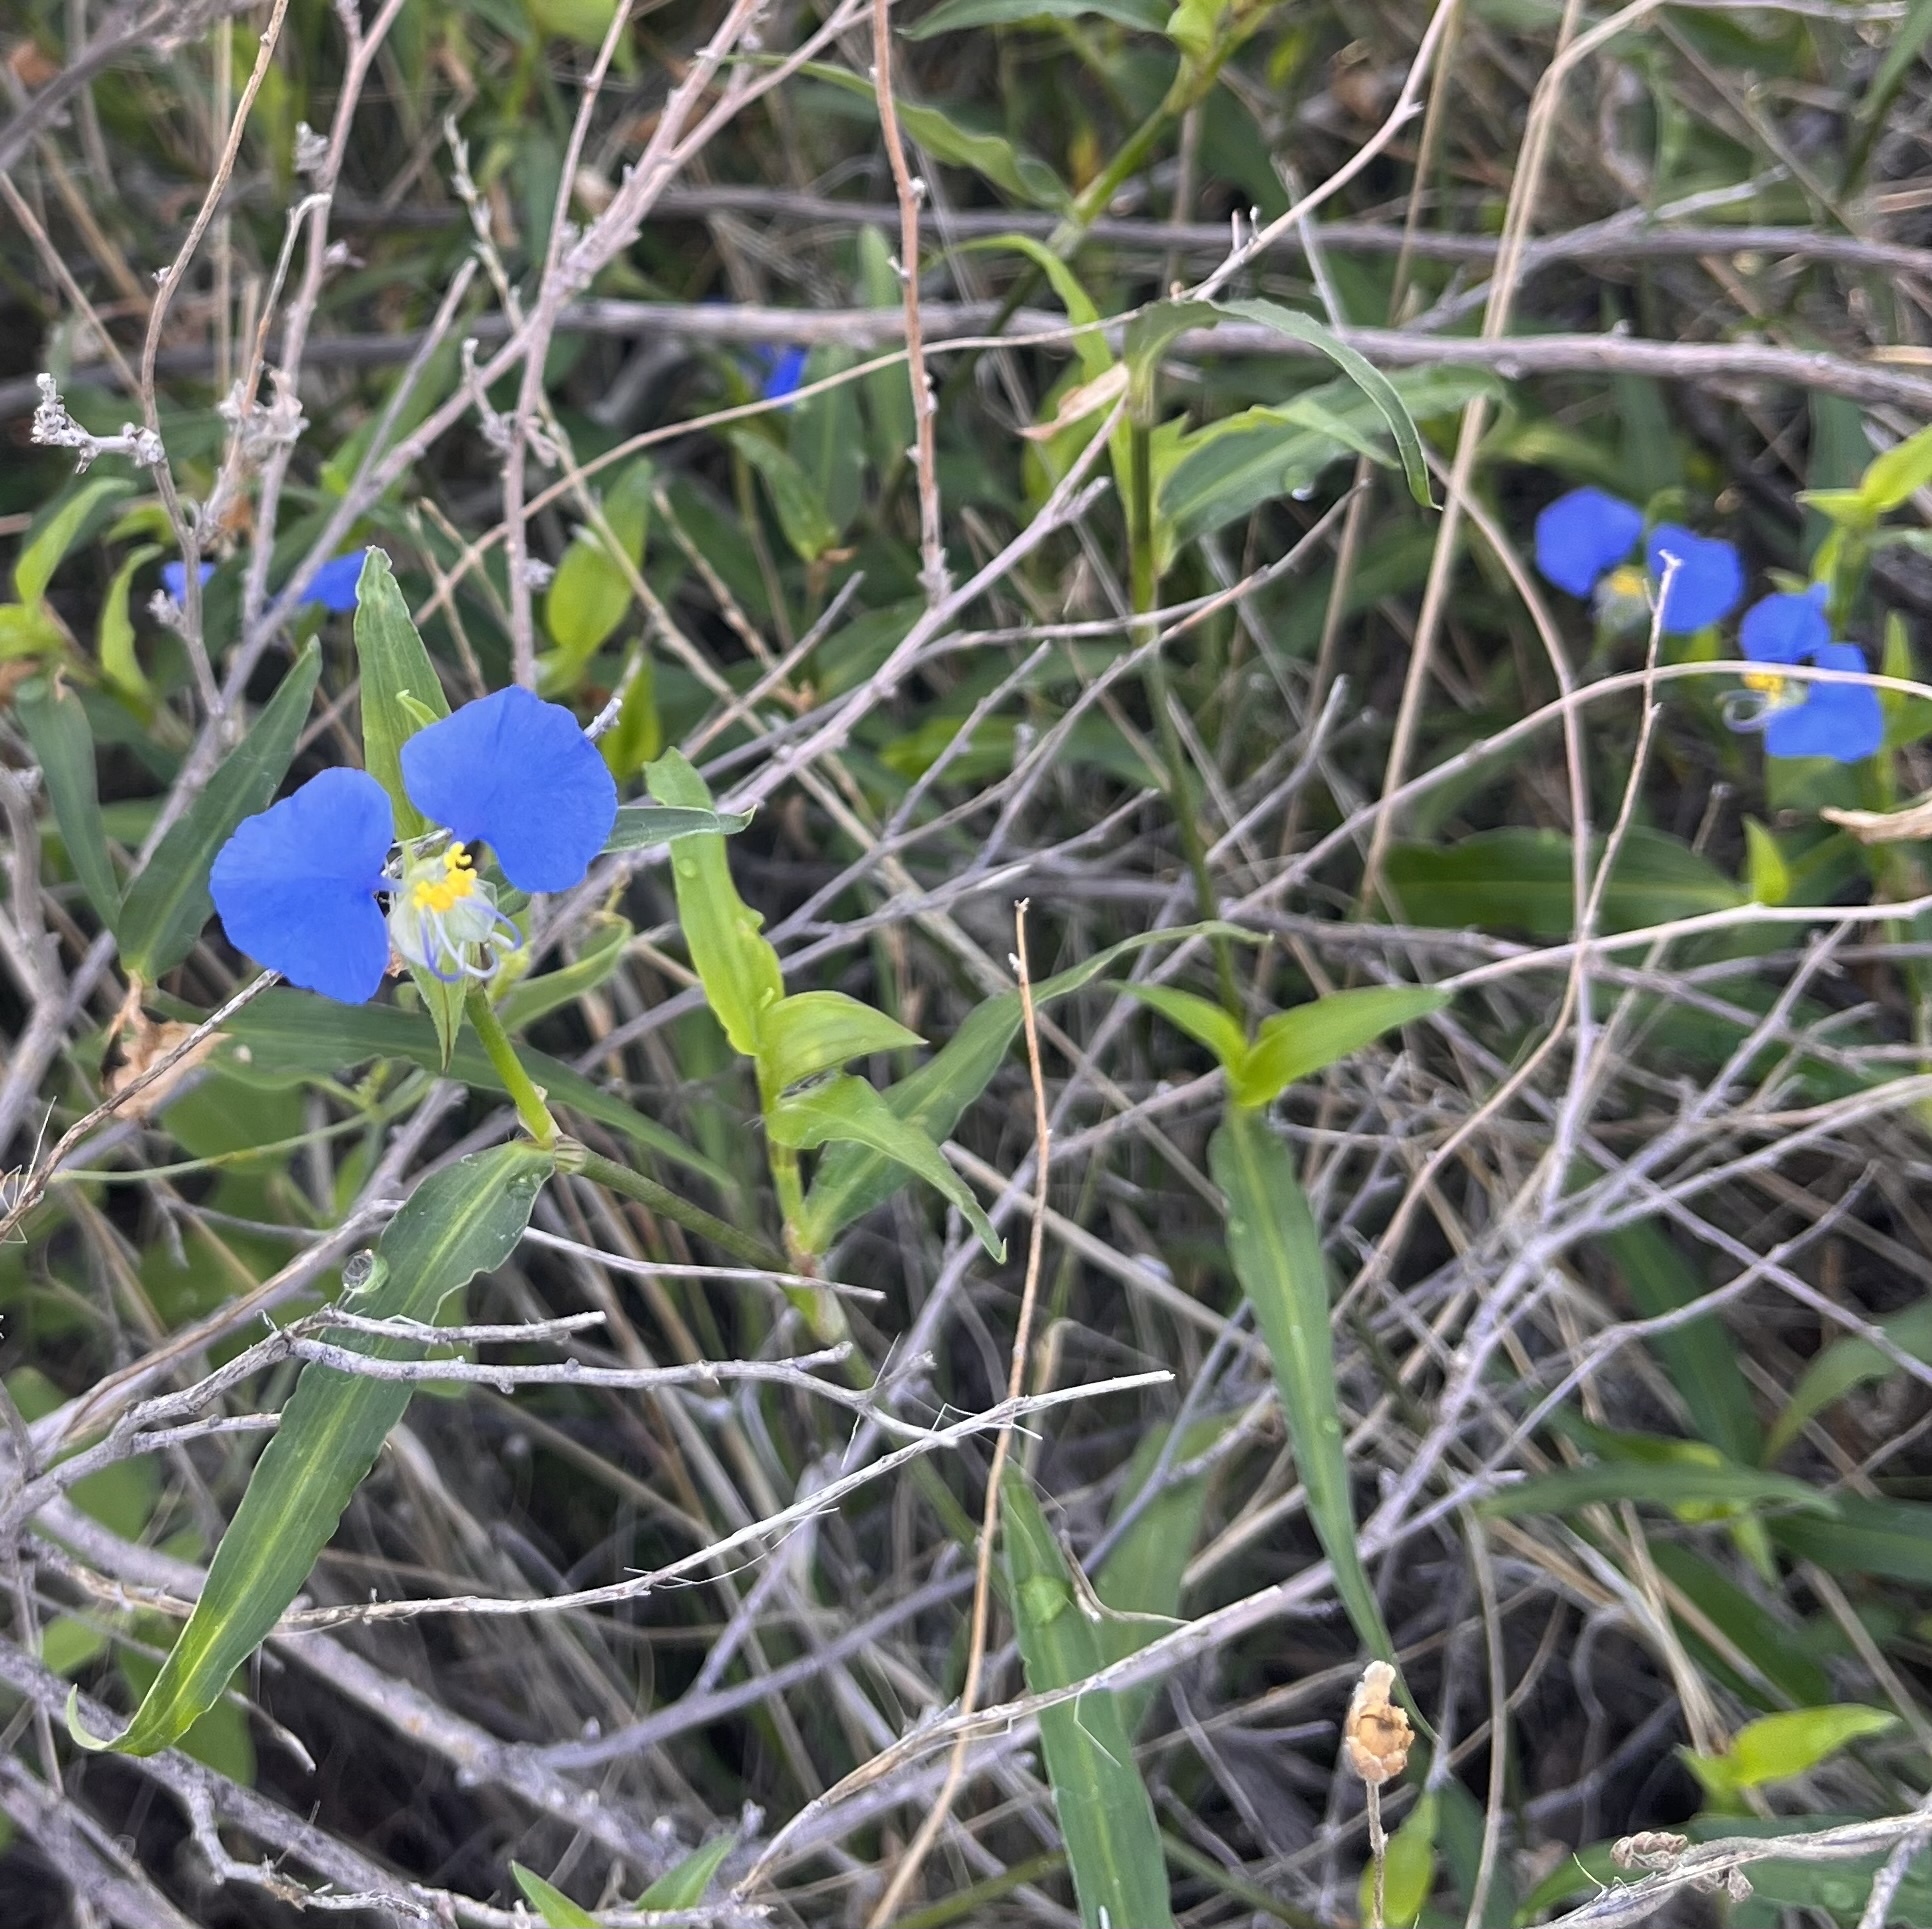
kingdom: Plantae
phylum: Tracheophyta
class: Liliopsida
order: Commelinales
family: Commelinaceae
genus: Commelina
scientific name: Commelina erecta
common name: Blousel blommetjie
